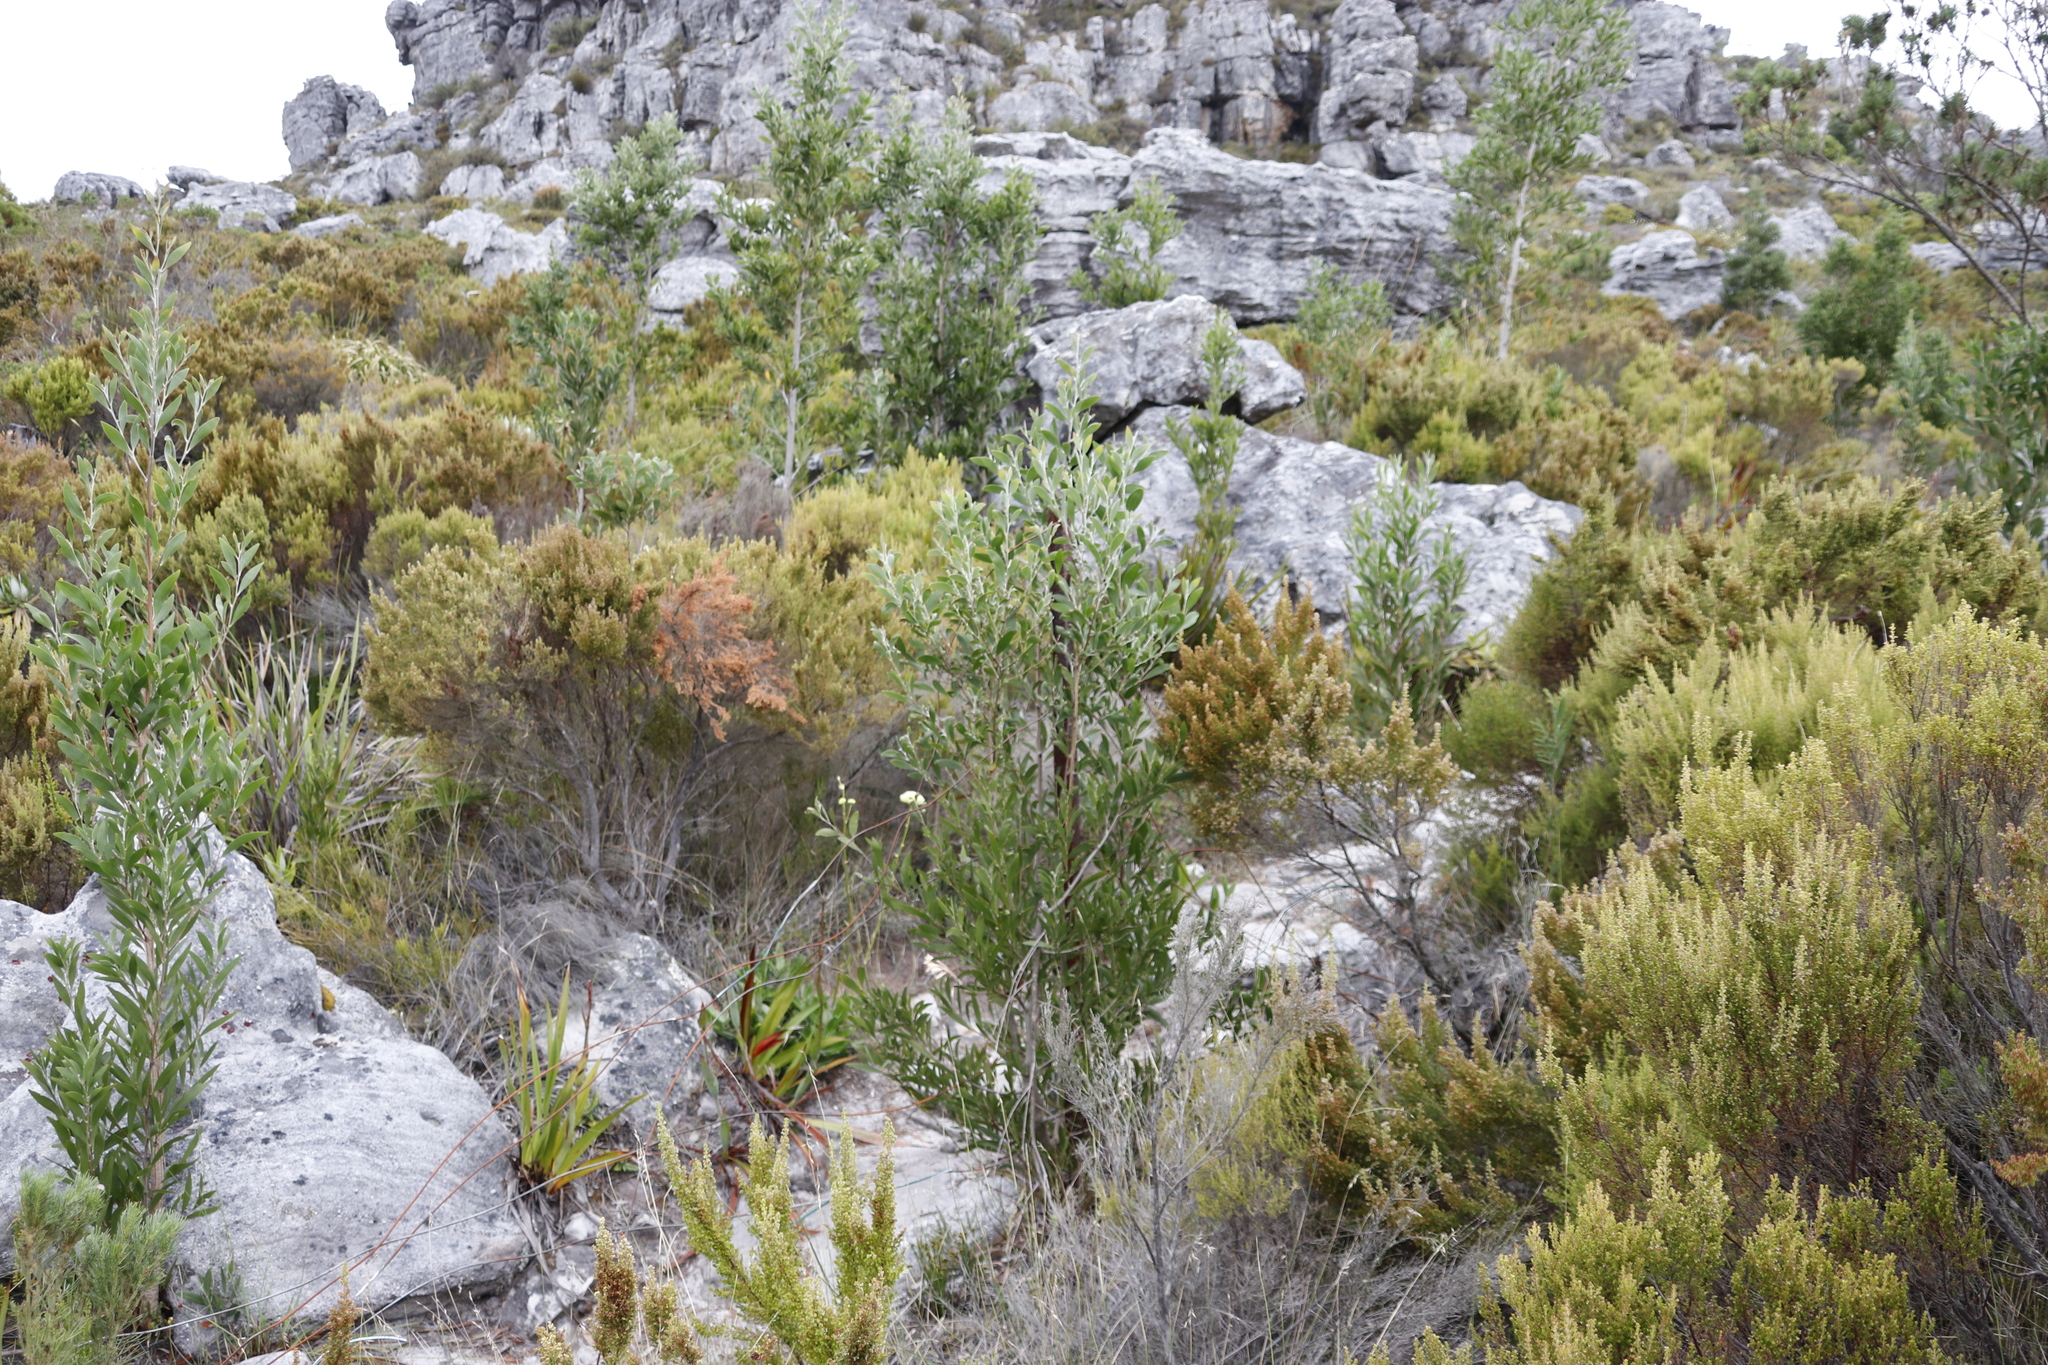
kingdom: Plantae
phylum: Tracheophyta
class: Magnoliopsida
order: Fabales
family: Fabaceae
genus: Acacia
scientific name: Acacia melanoxylon
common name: Blackwood
